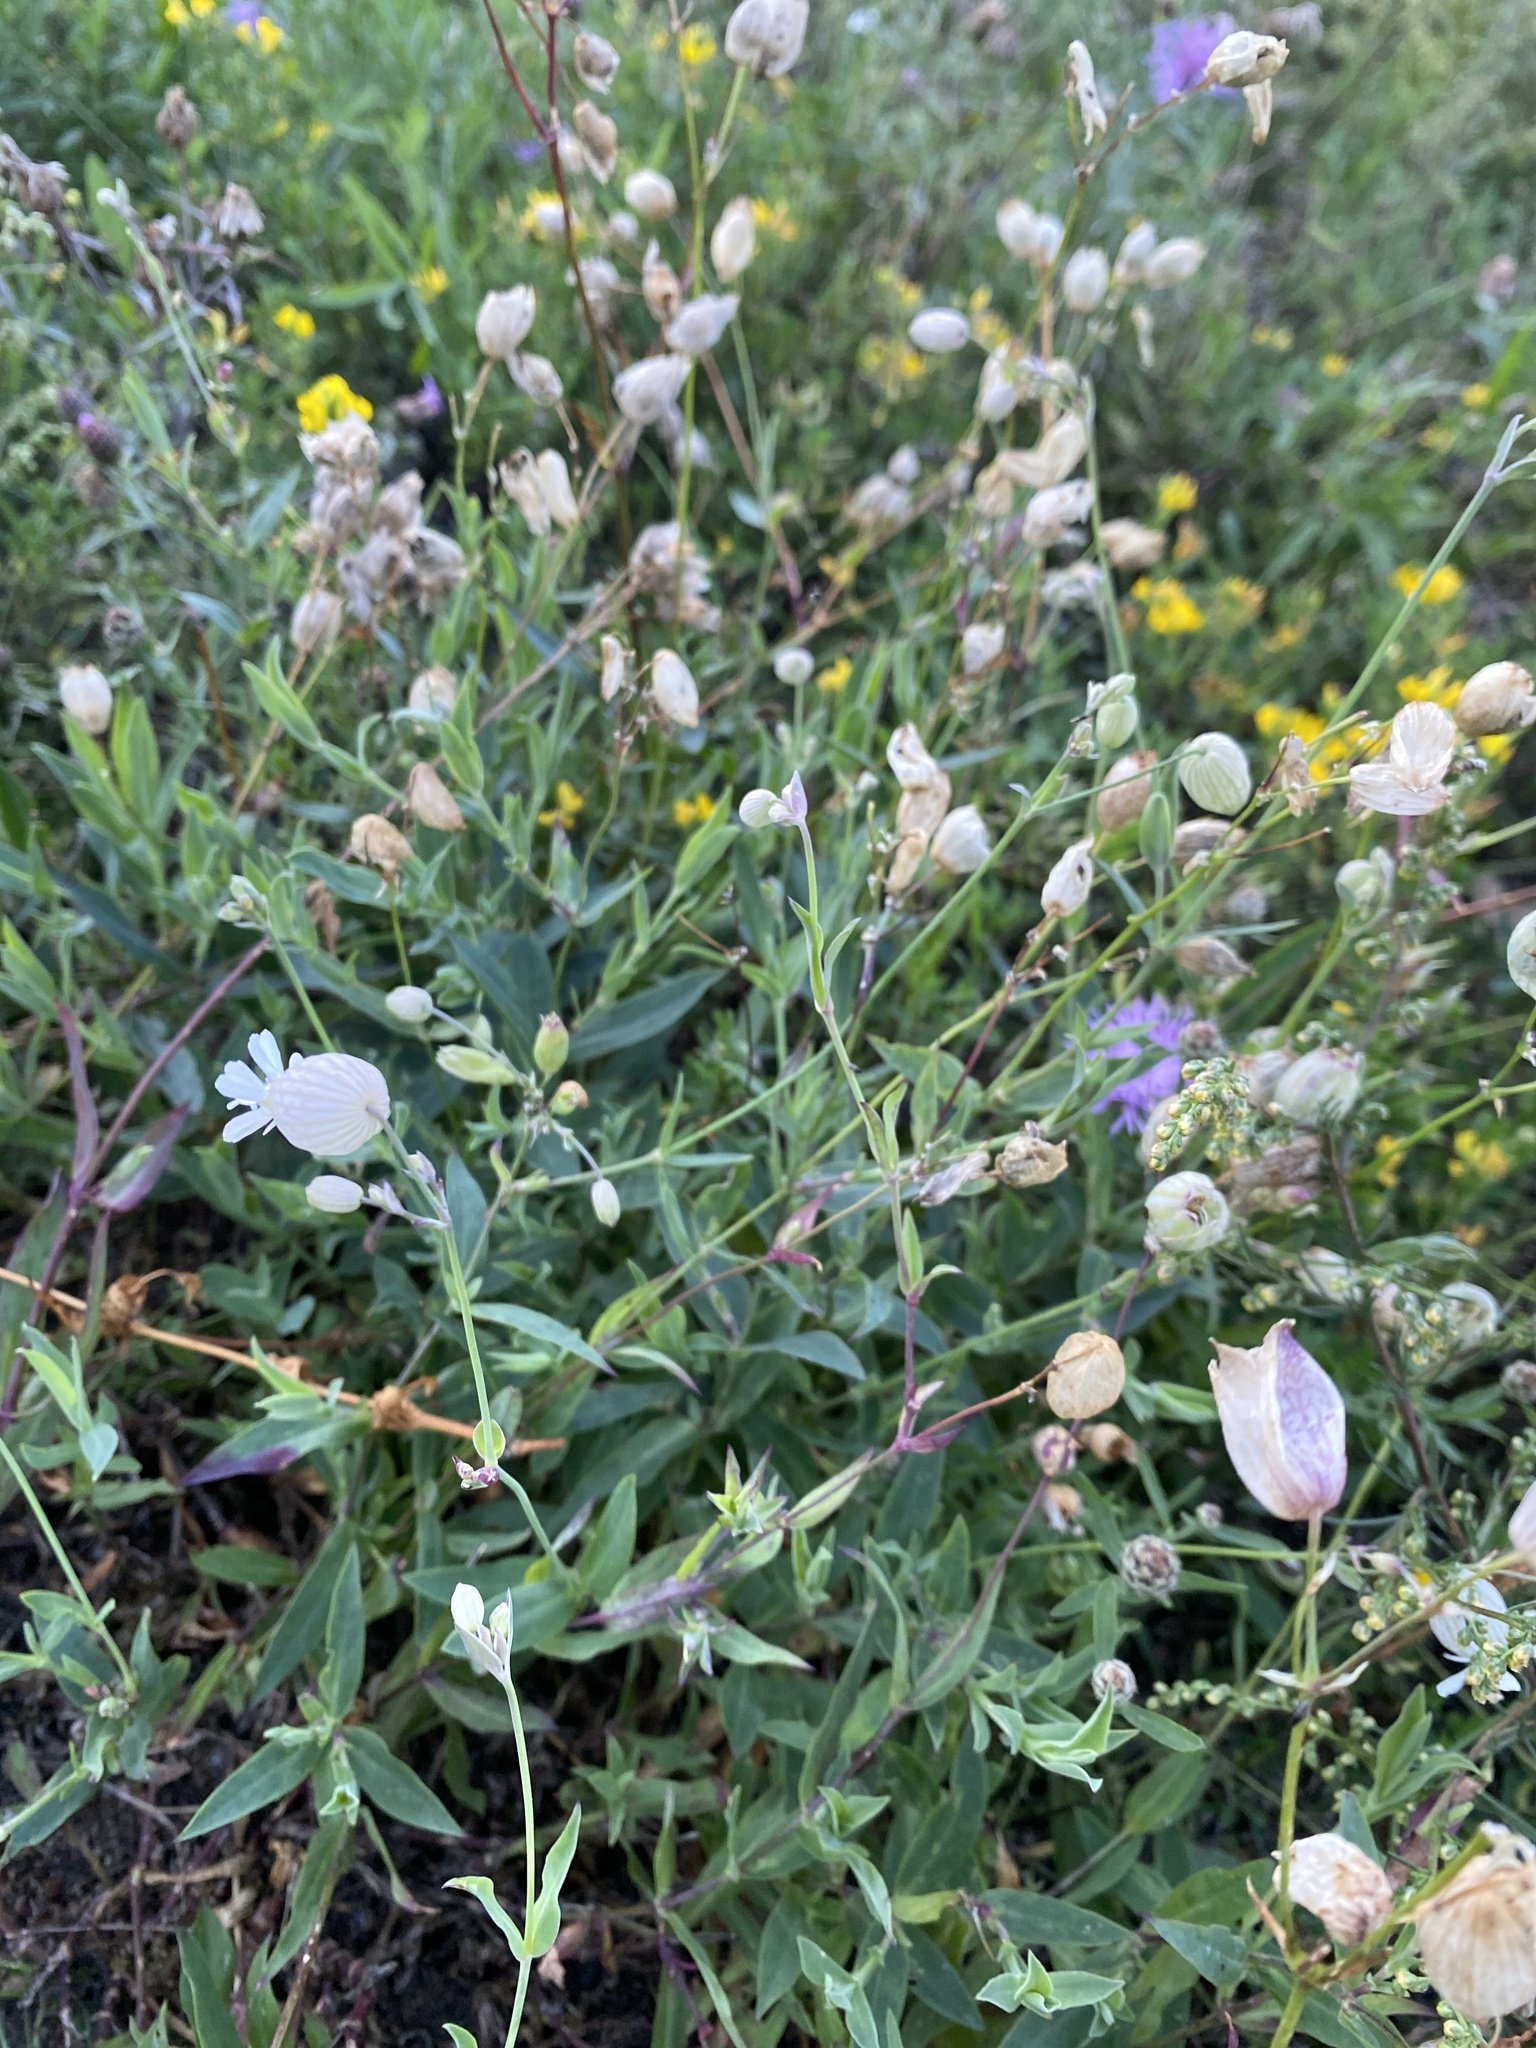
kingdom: Plantae
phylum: Tracheophyta
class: Magnoliopsida
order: Caryophyllales
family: Caryophyllaceae
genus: Silene
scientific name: Silene vulgaris
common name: Bladder campion
